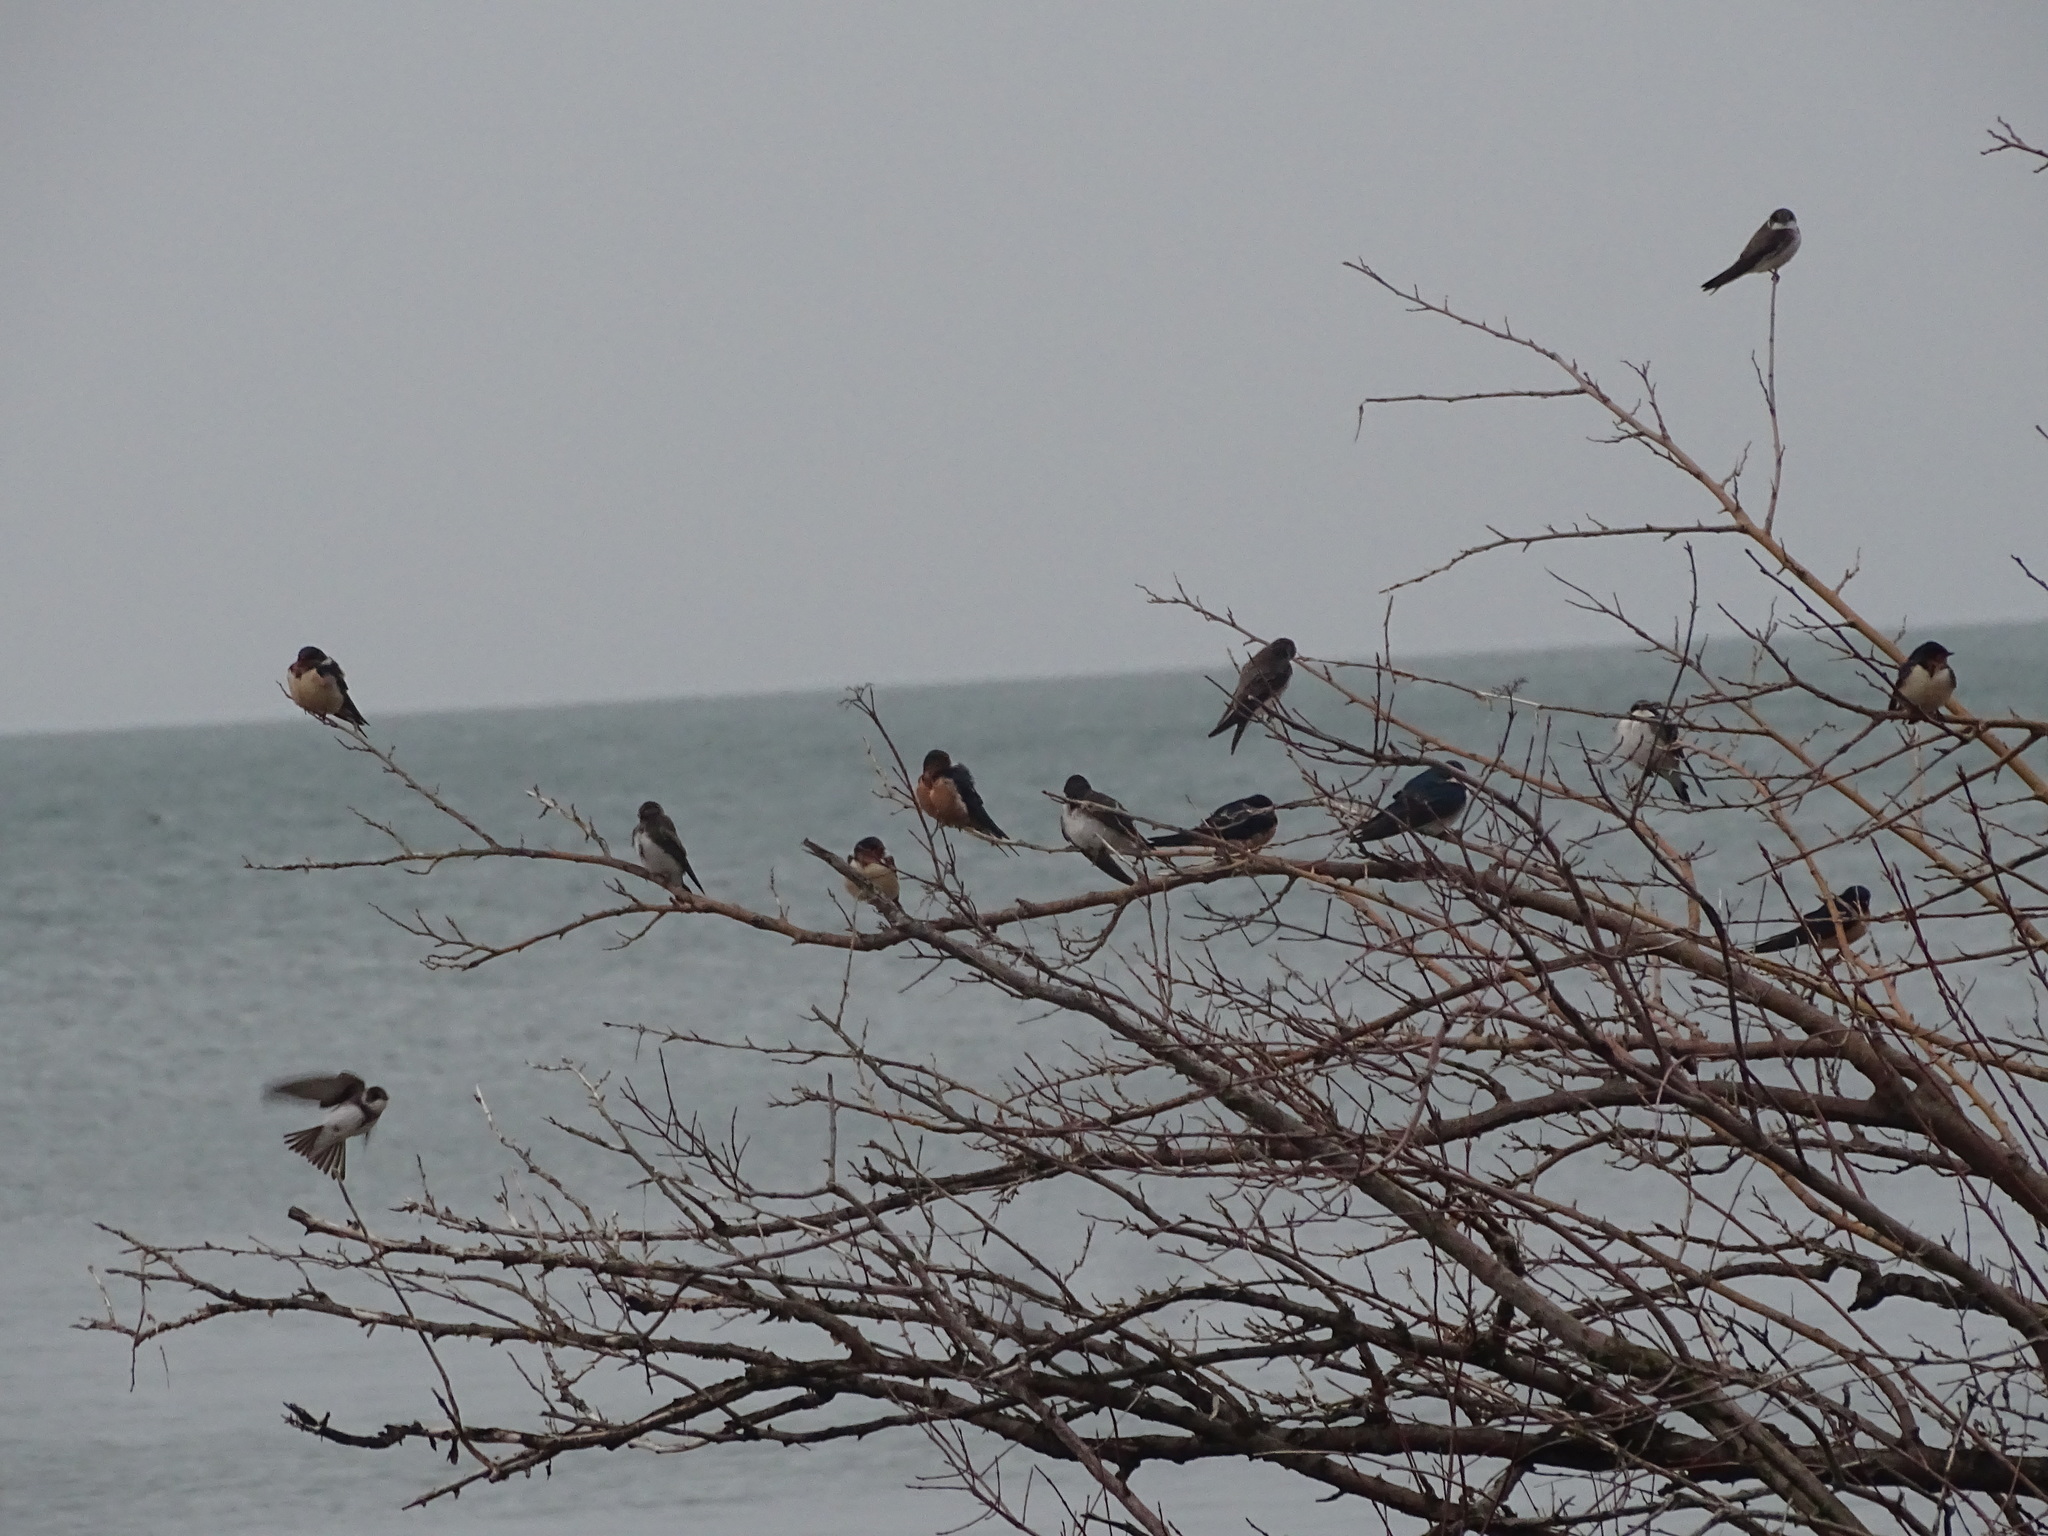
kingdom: Animalia
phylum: Chordata
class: Aves
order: Passeriformes
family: Hirundinidae
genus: Tachycineta
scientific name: Tachycineta bicolor
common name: Tree swallow
